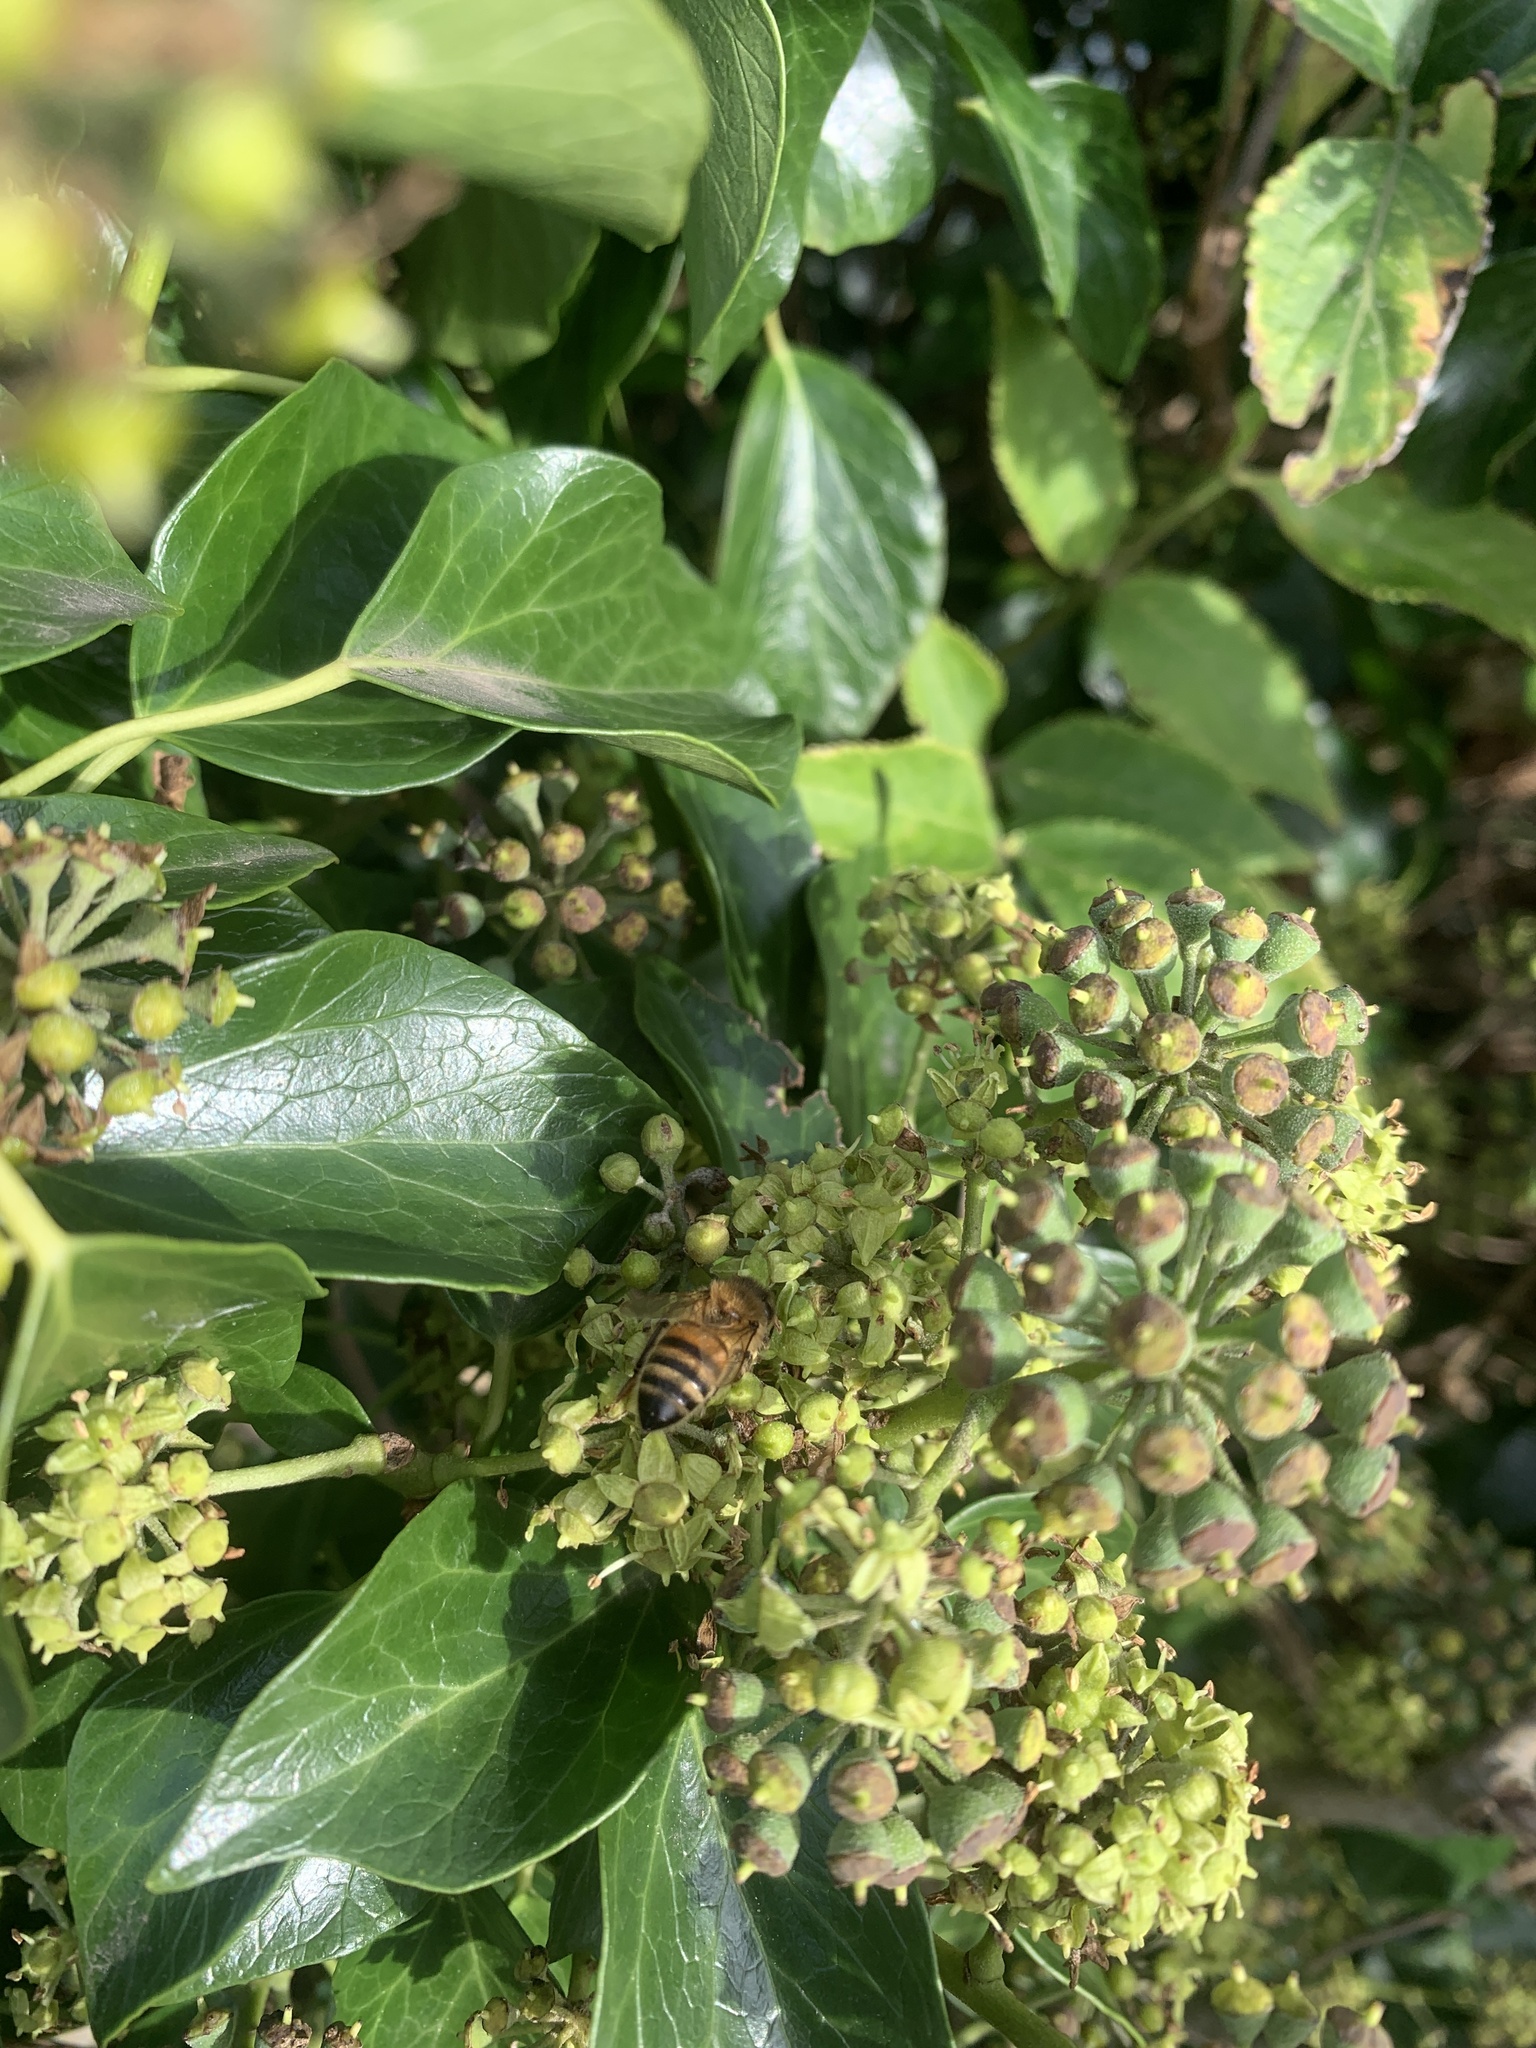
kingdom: Animalia
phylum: Arthropoda
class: Insecta
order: Hymenoptera
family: Apidae
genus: Apis
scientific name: Apis mellifera
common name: Honey bee
